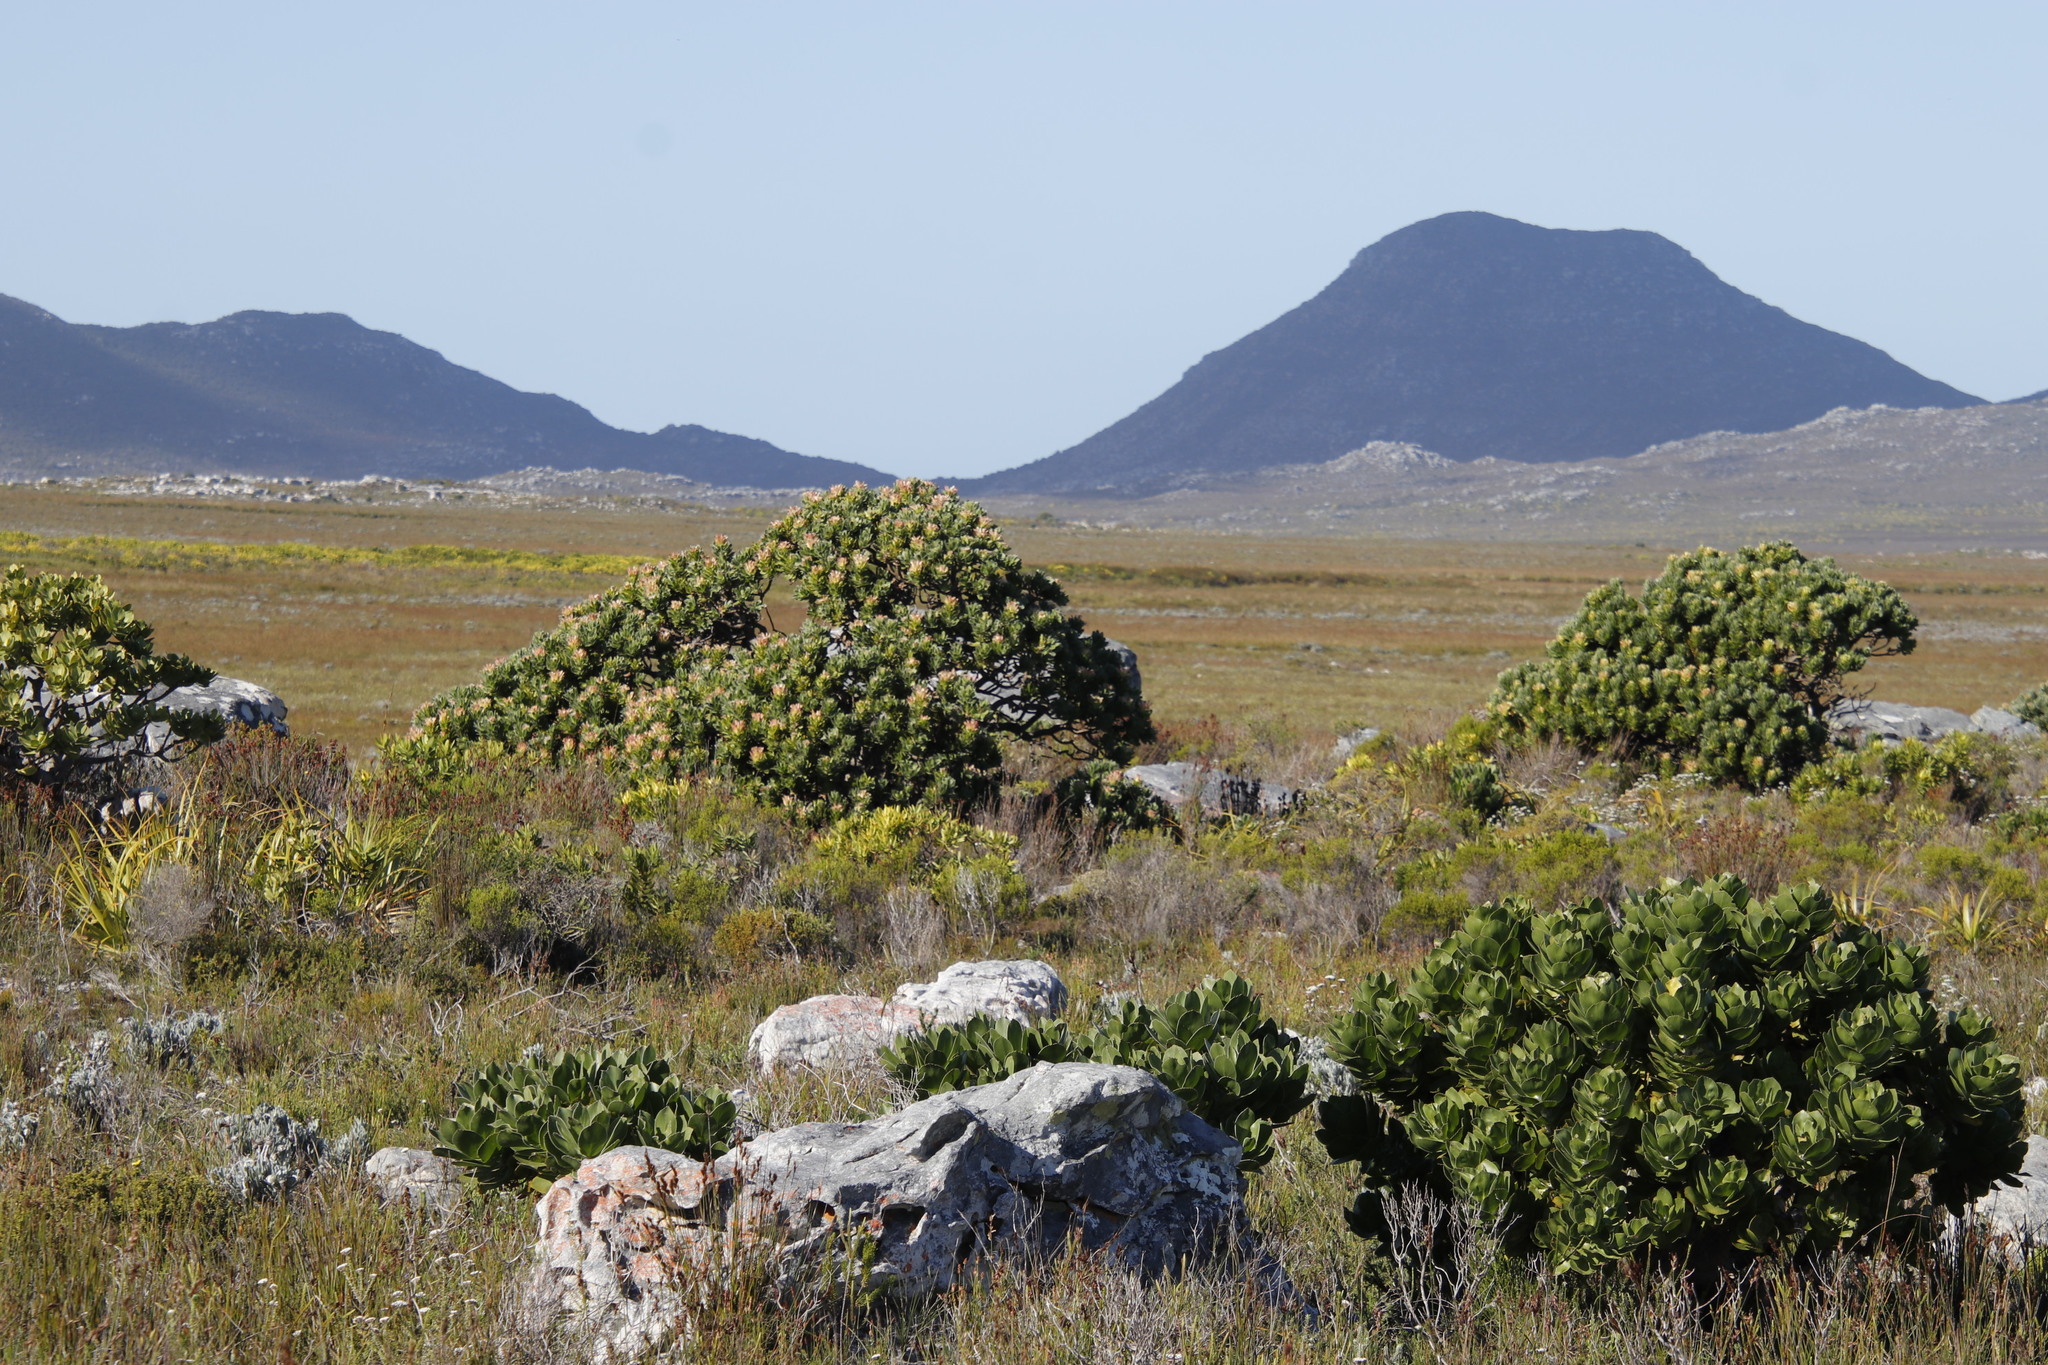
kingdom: Plantae
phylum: Tracheophyta
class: Magnoliopsida
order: Proteales
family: Proteaceae
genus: Leucospermum
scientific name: Leucospermum conocarpodendron
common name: Tree pincushion
